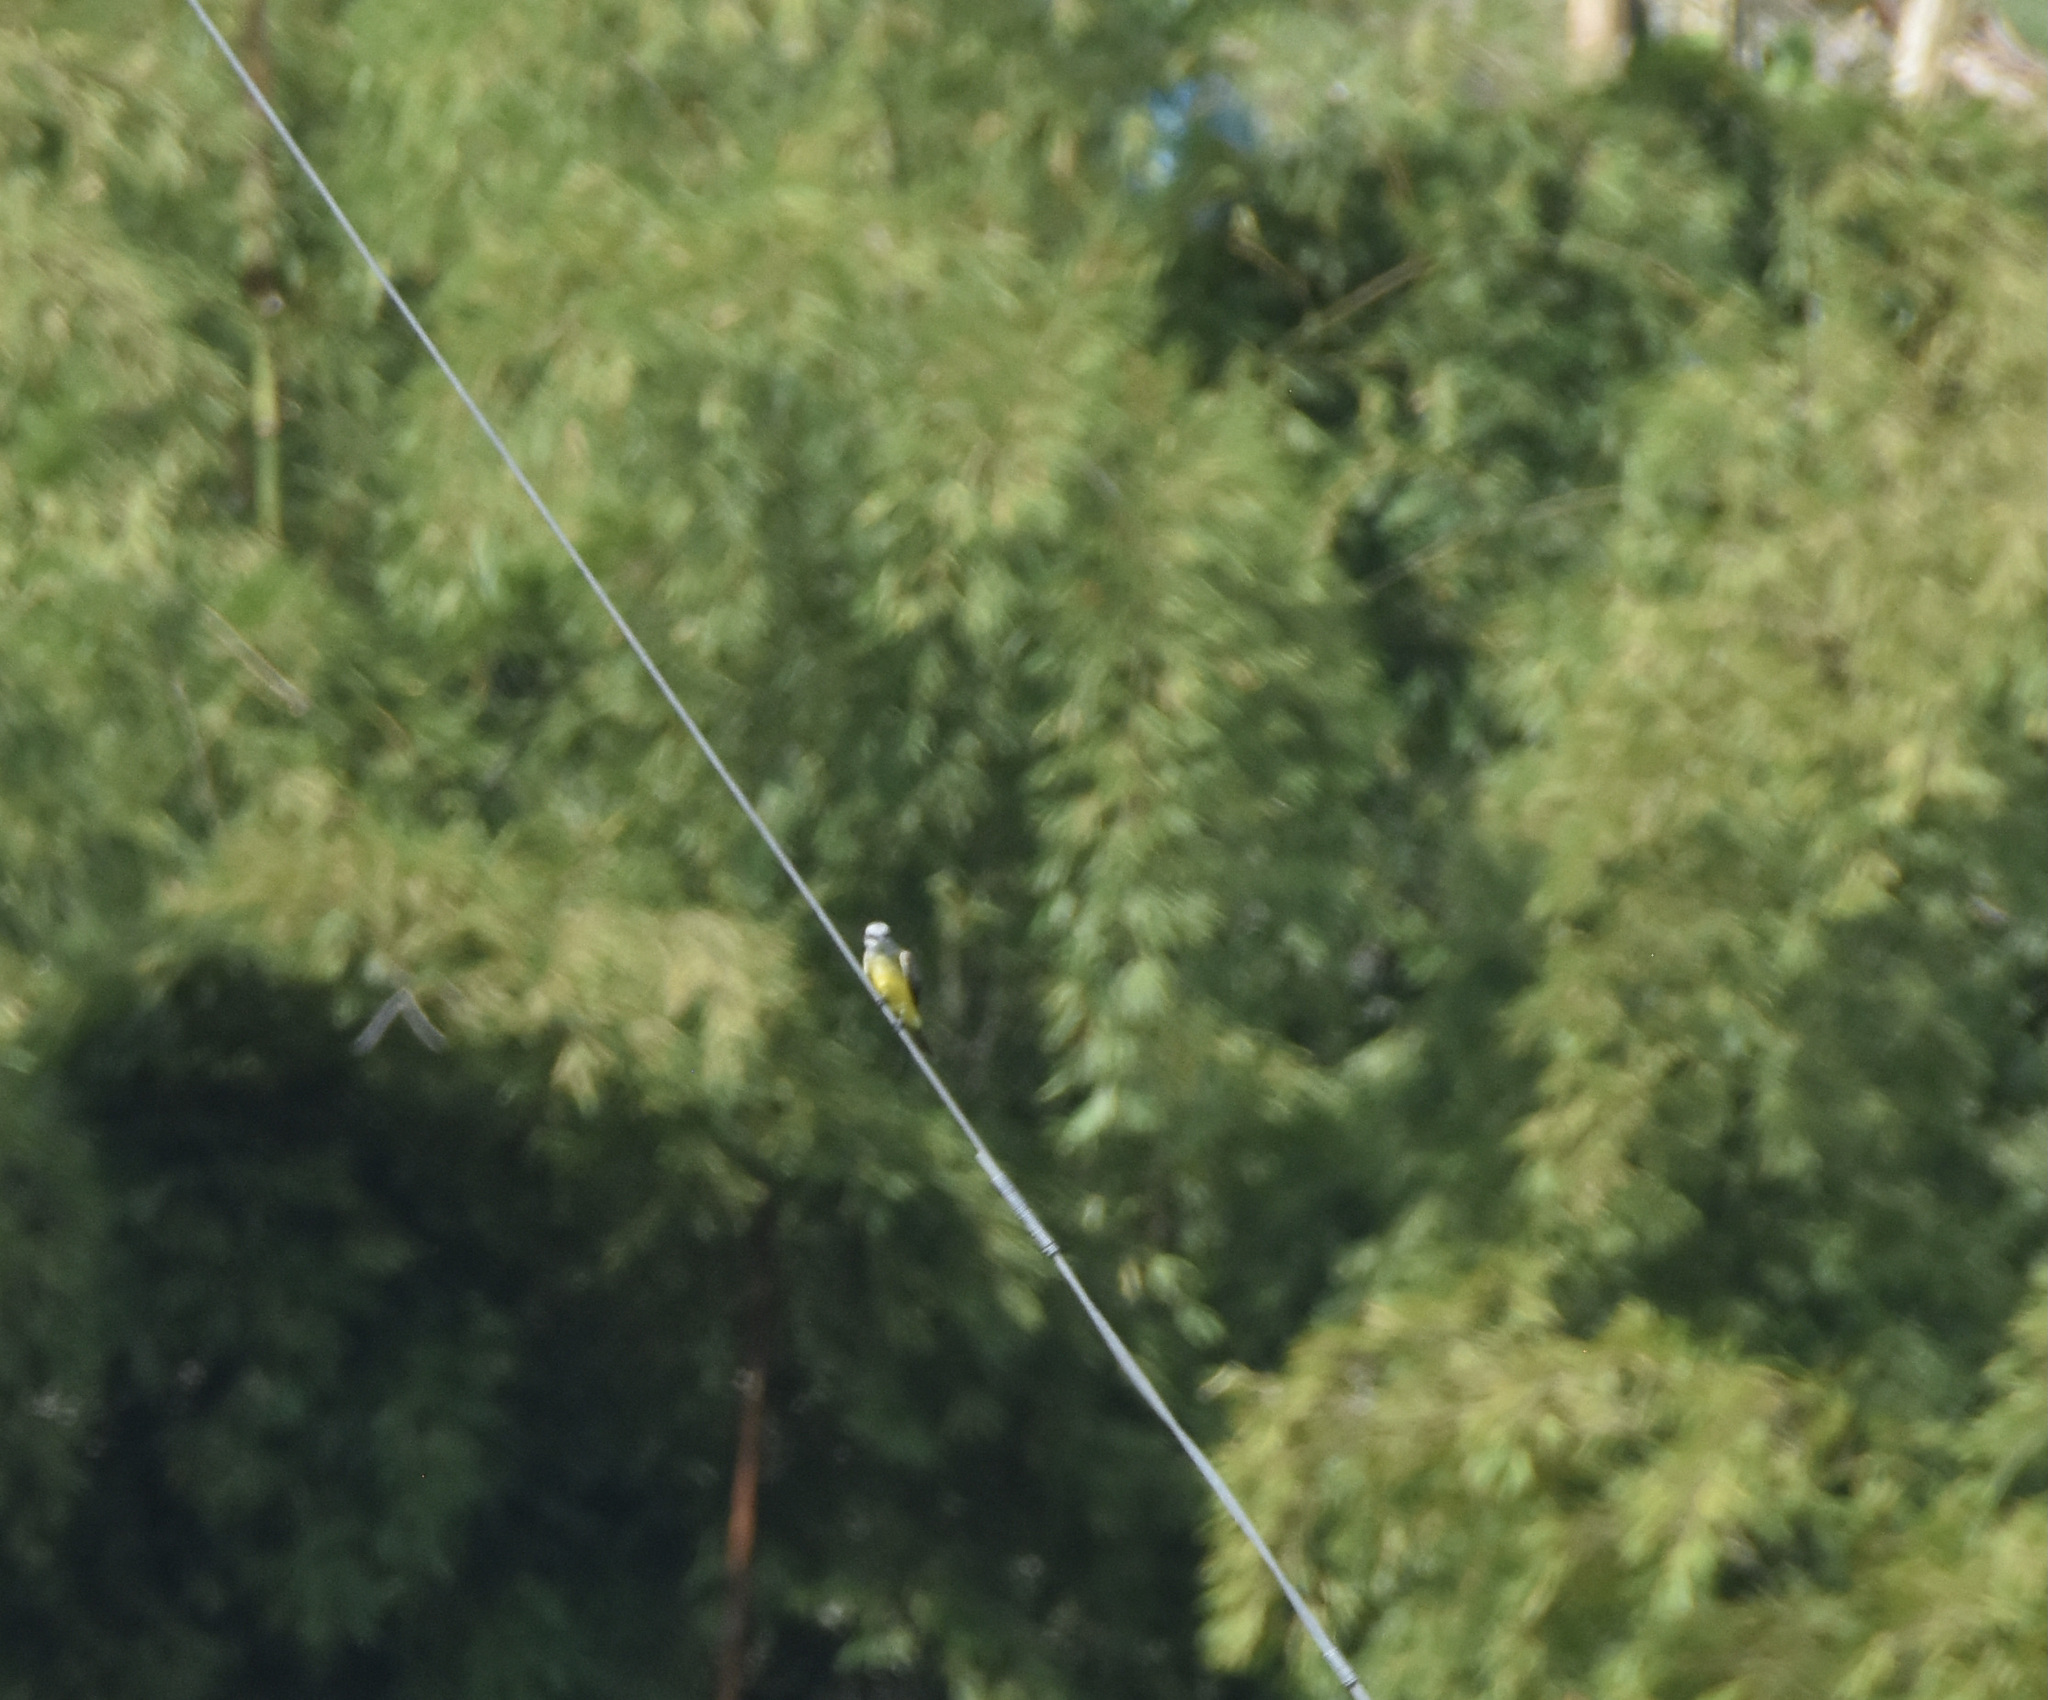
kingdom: Animalia
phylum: Chordata
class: Aves
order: Passeriformes
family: Tyrannidae
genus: Tyrannus
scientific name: Tyrannus melancholicus
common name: Tropical kingbird
